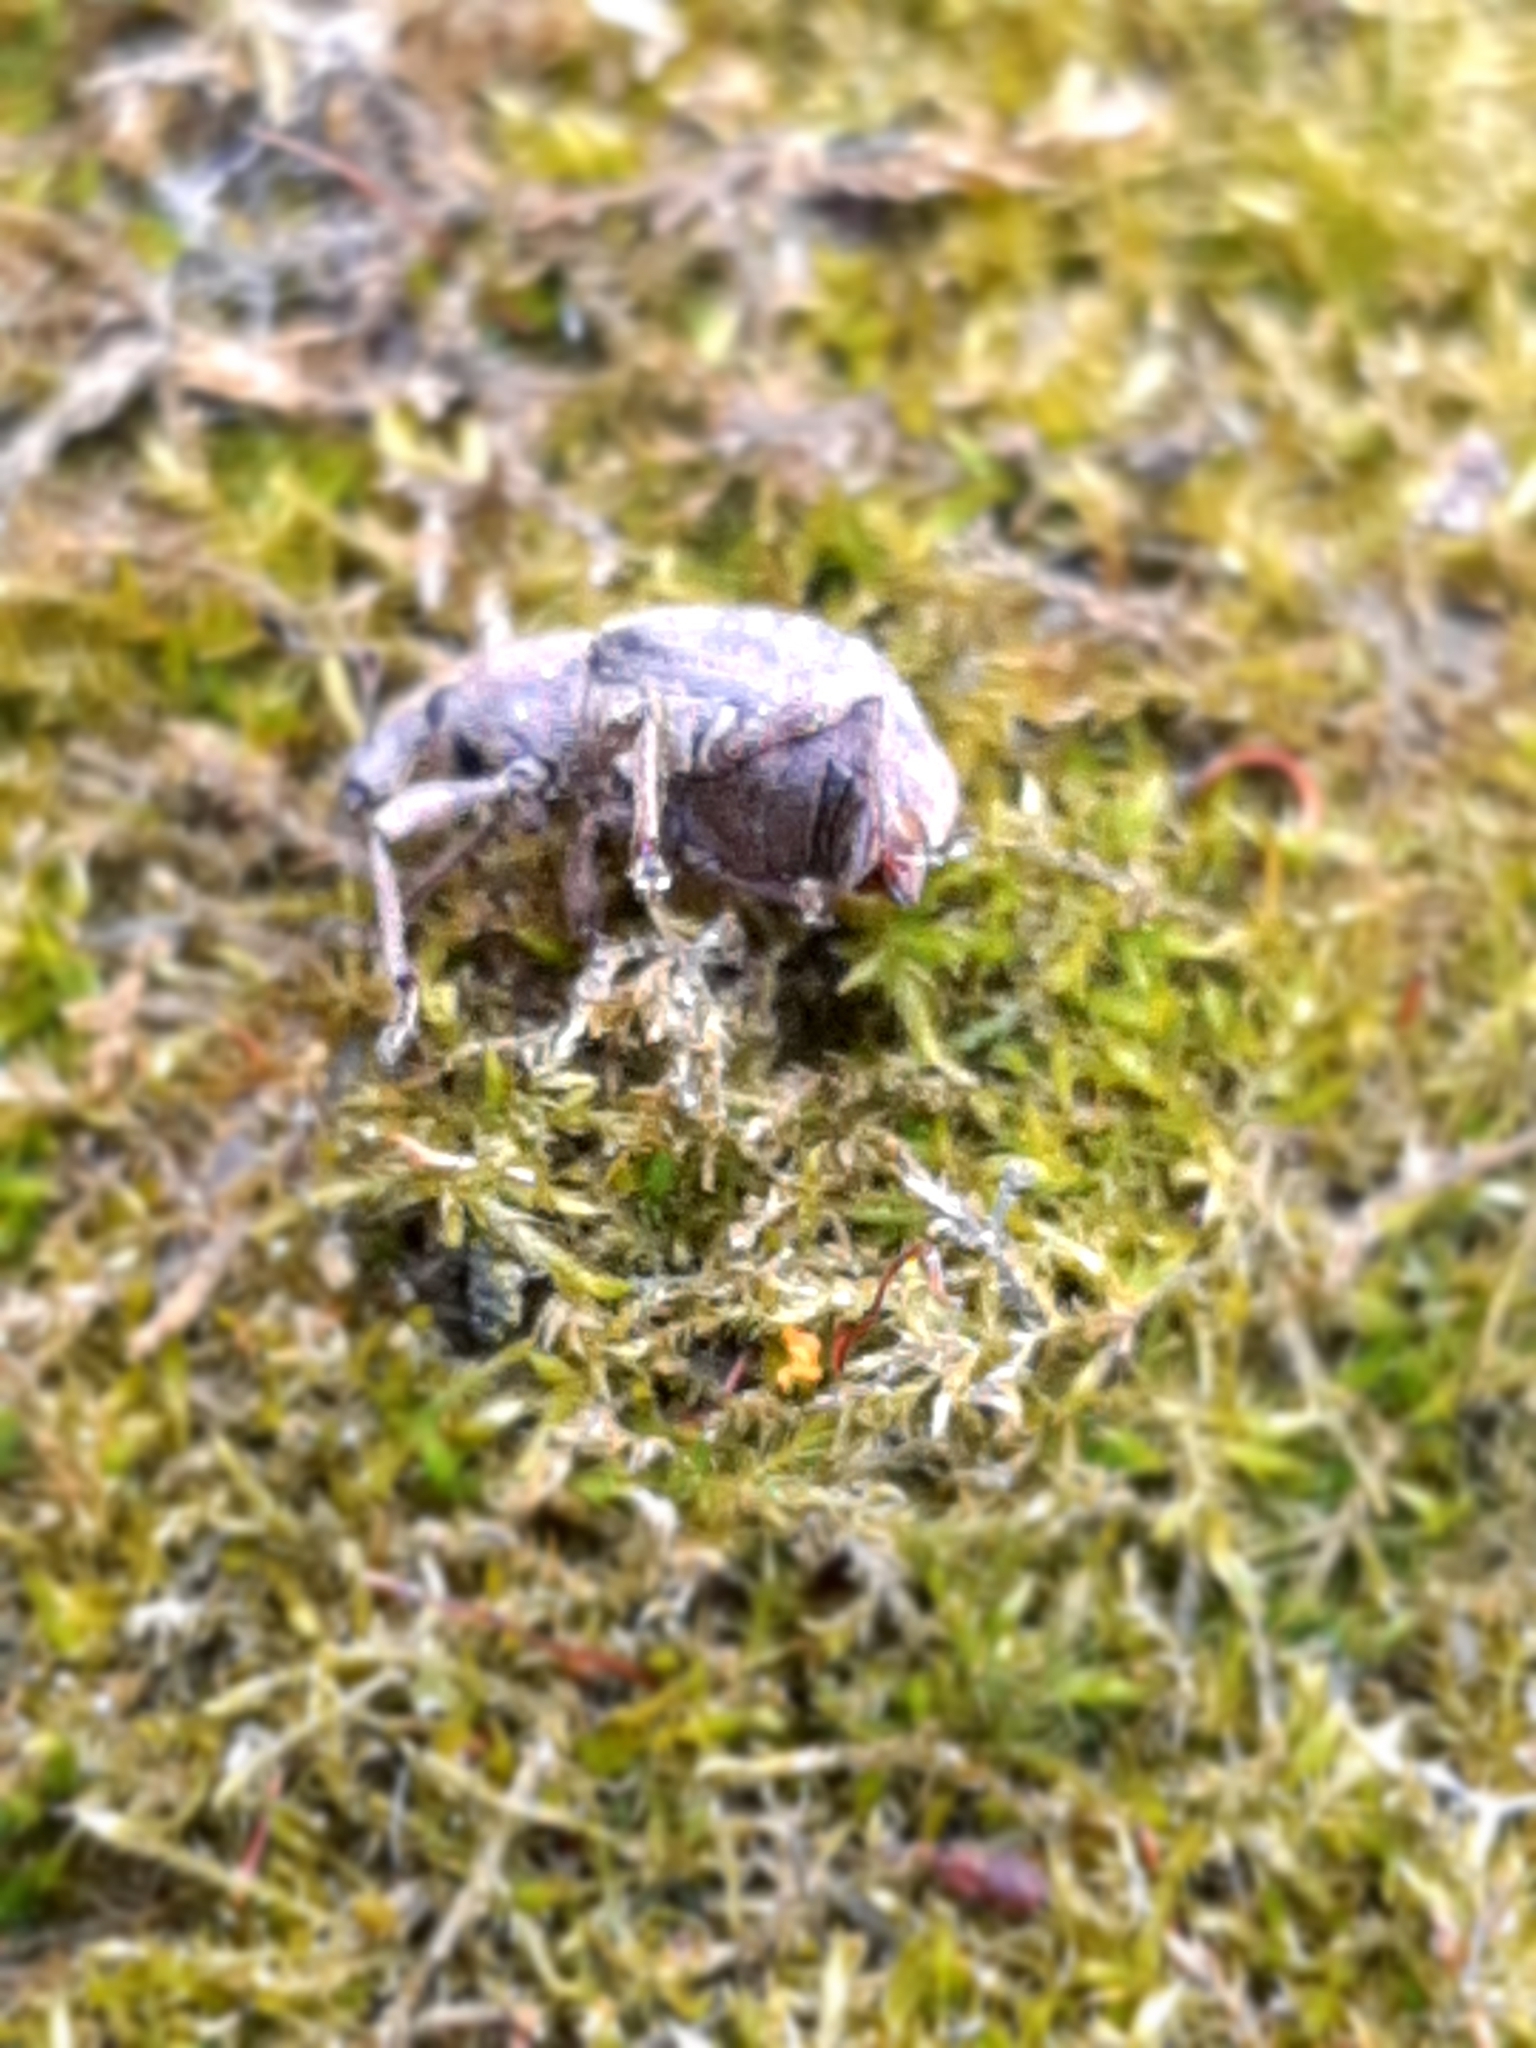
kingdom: Animalia
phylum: Arthropoda
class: Insecta
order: Coleoptera
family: Curculionidae
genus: Tropiphorus
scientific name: Tropiphorus
